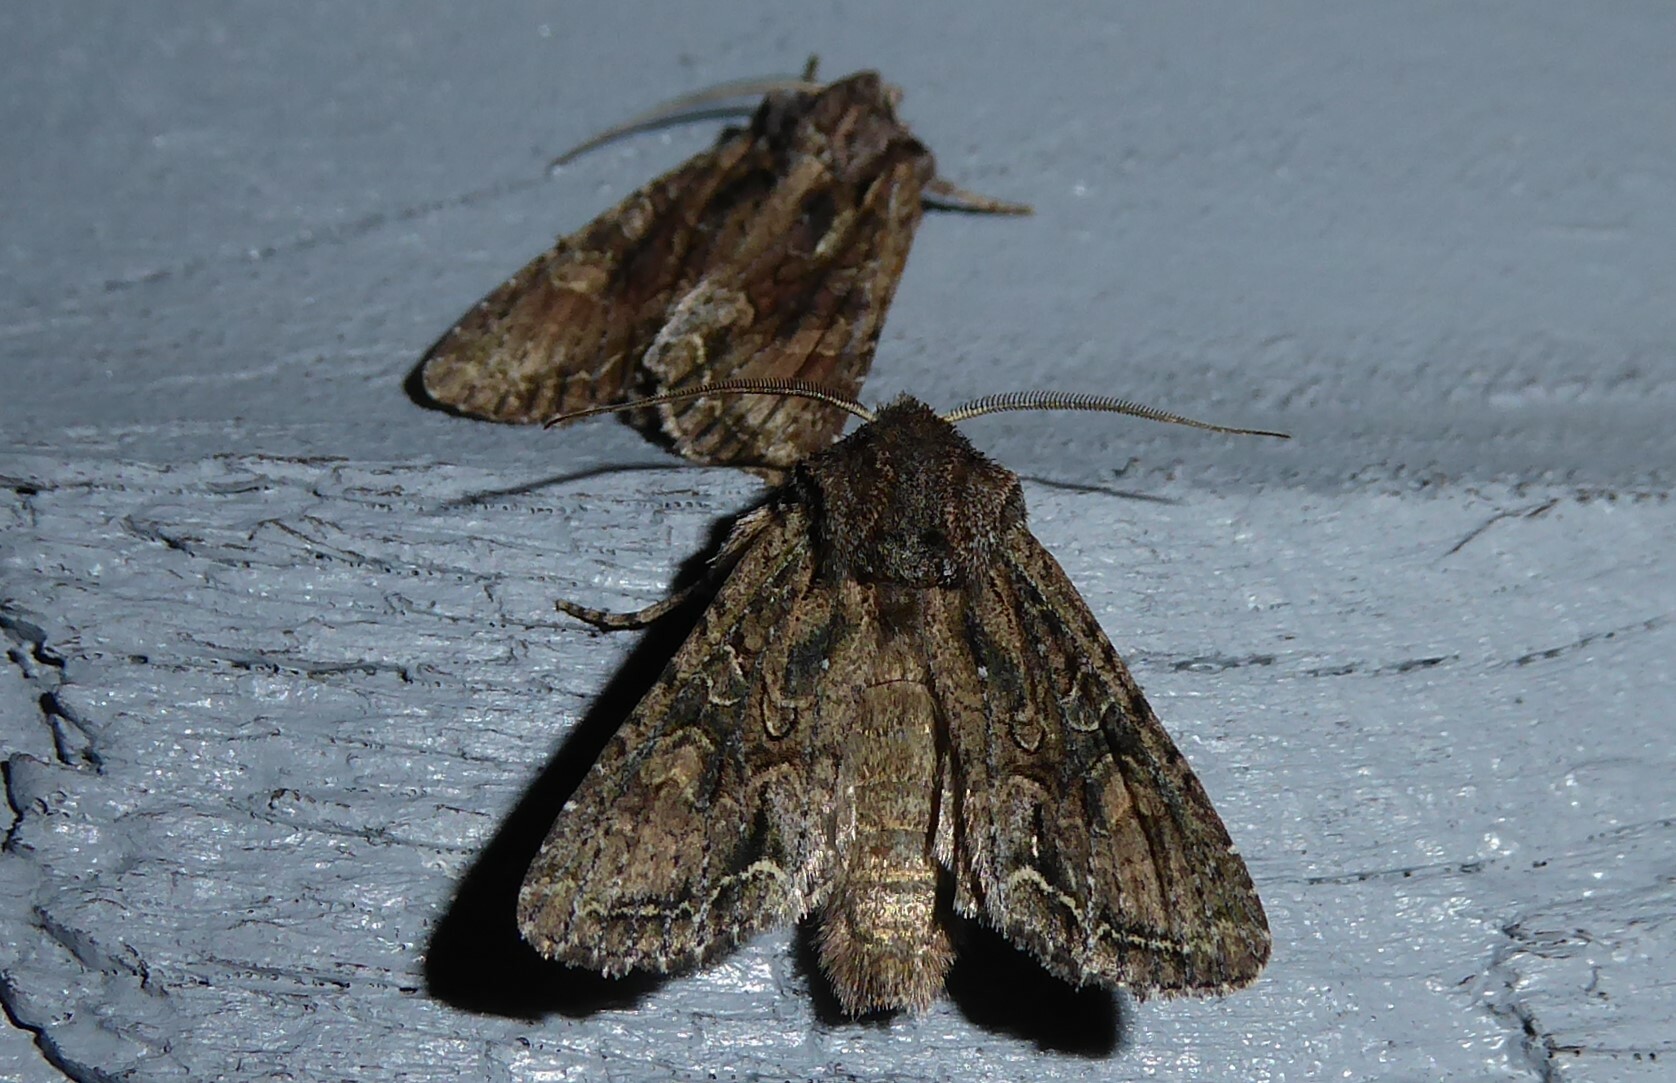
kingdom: Animalia
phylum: Arthropoda
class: Insecta
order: Lepidoptera
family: Noctuidae
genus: Ichneutica
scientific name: Ichneutica mutans
